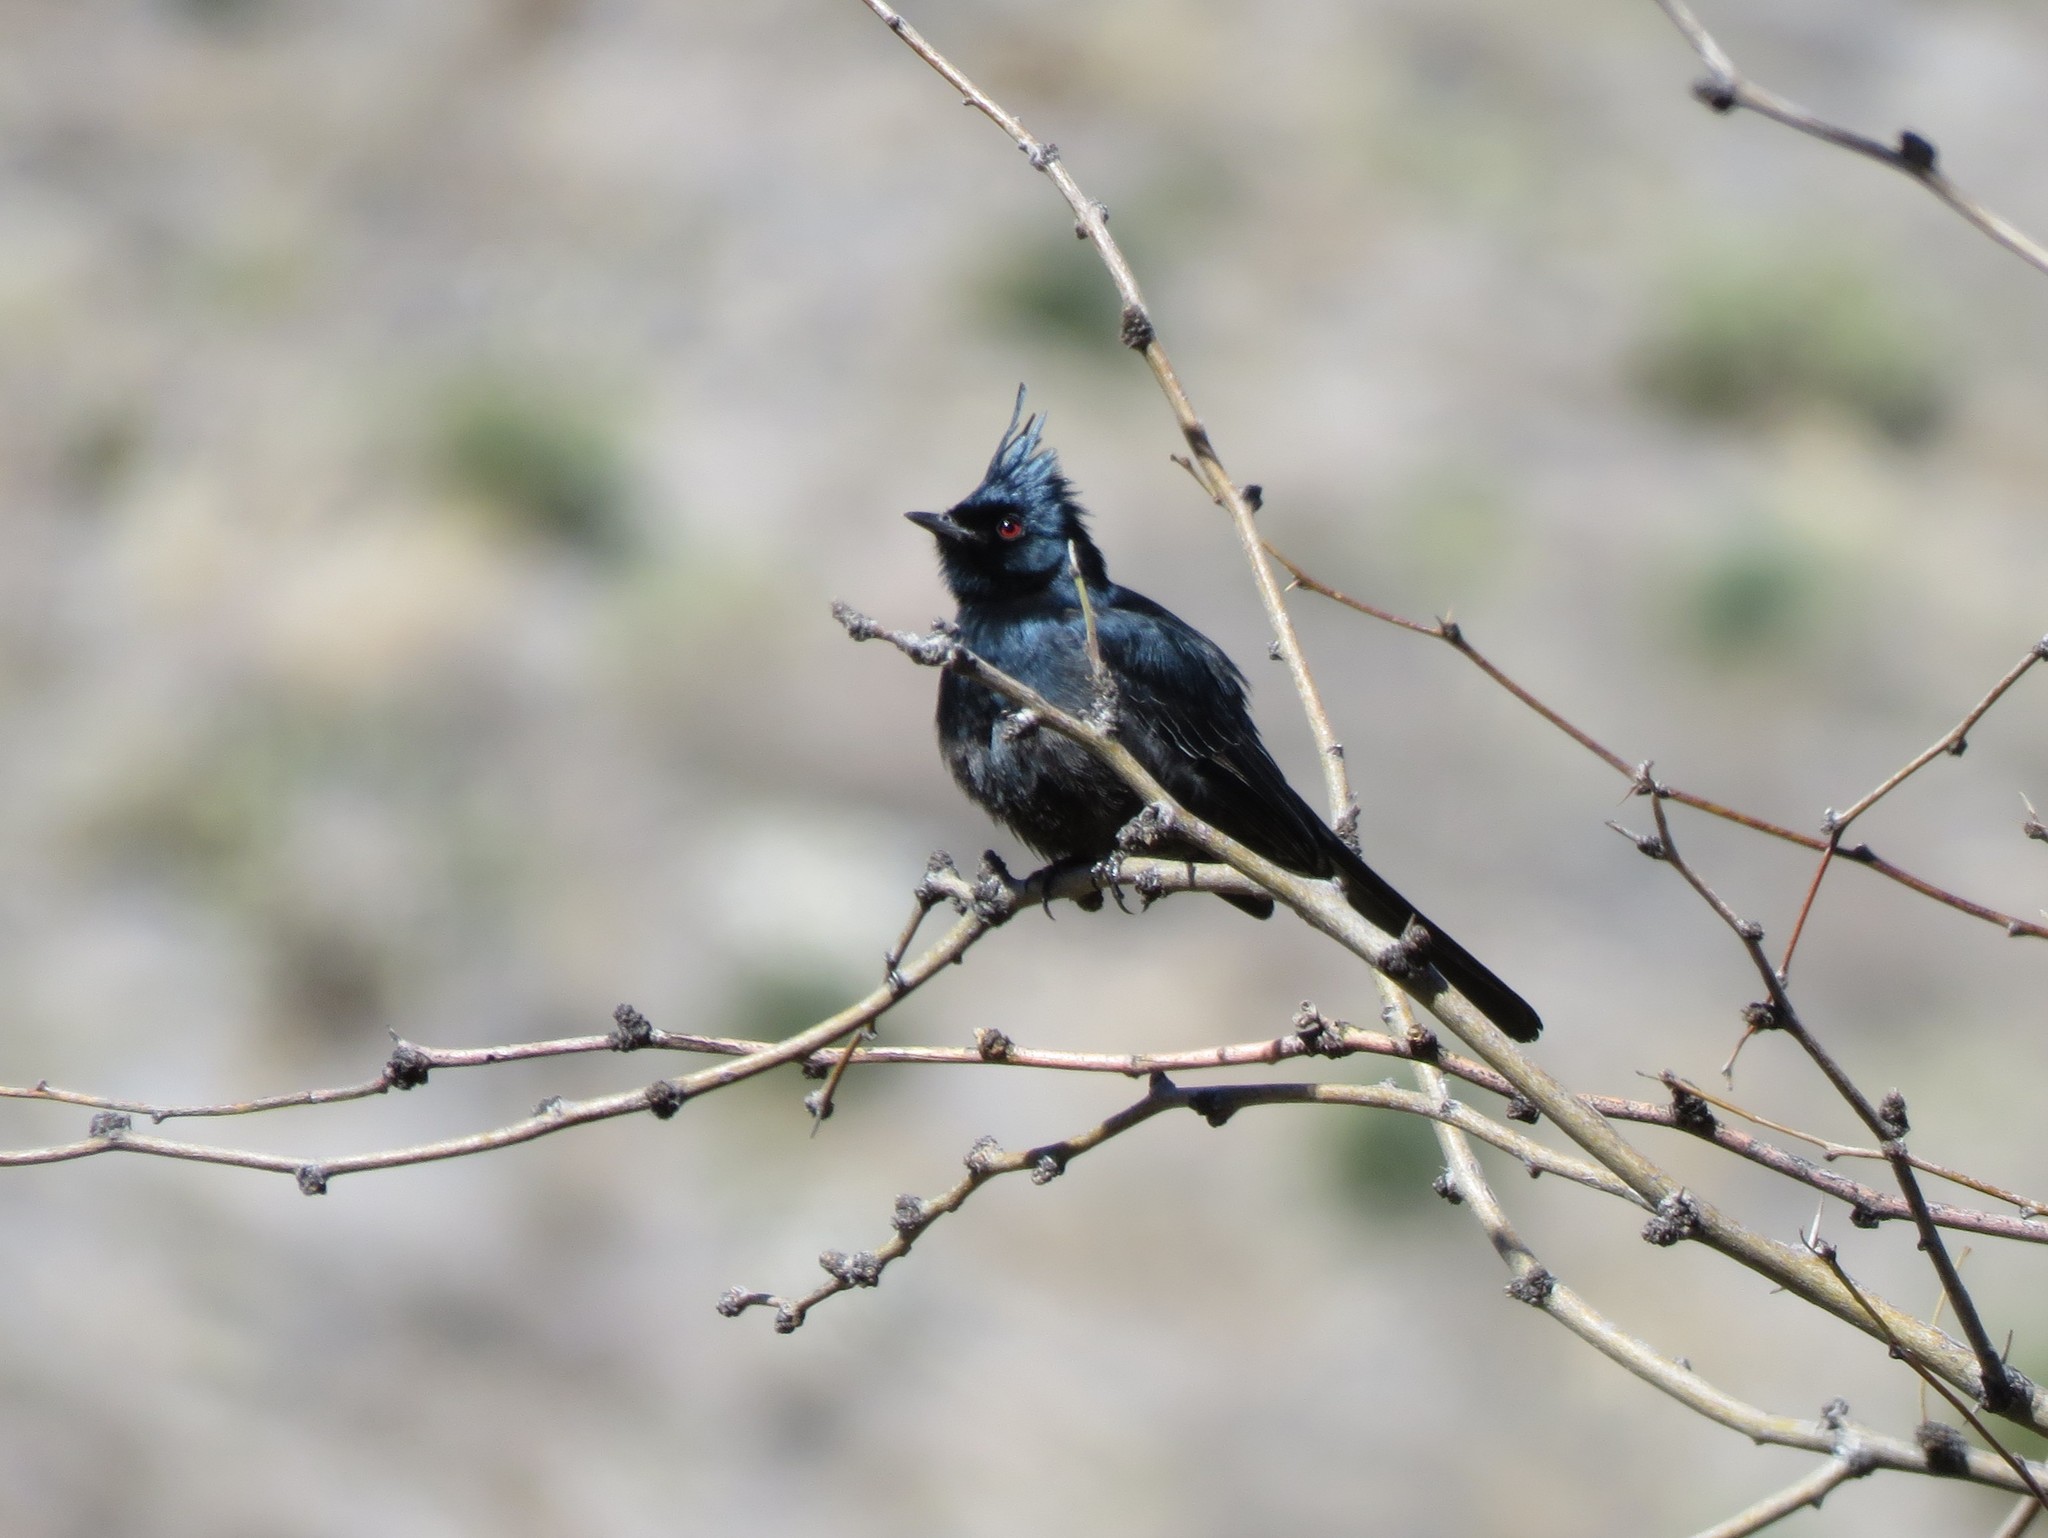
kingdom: Animalia
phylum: Chordata
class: Aves
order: Passeriformes
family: Ptilogonatidae
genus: Phainopepla
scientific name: Phainopepla nitens
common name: Phainopepla
